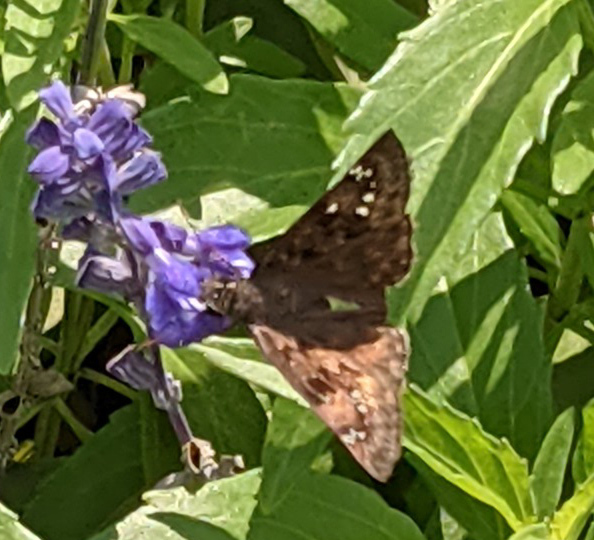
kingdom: Animalia
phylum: Arthropoda
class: Insecta
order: Lepidoptera
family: Hesperiidae
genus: Erynnis
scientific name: Erynnis horatius
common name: Horace's duskywing
